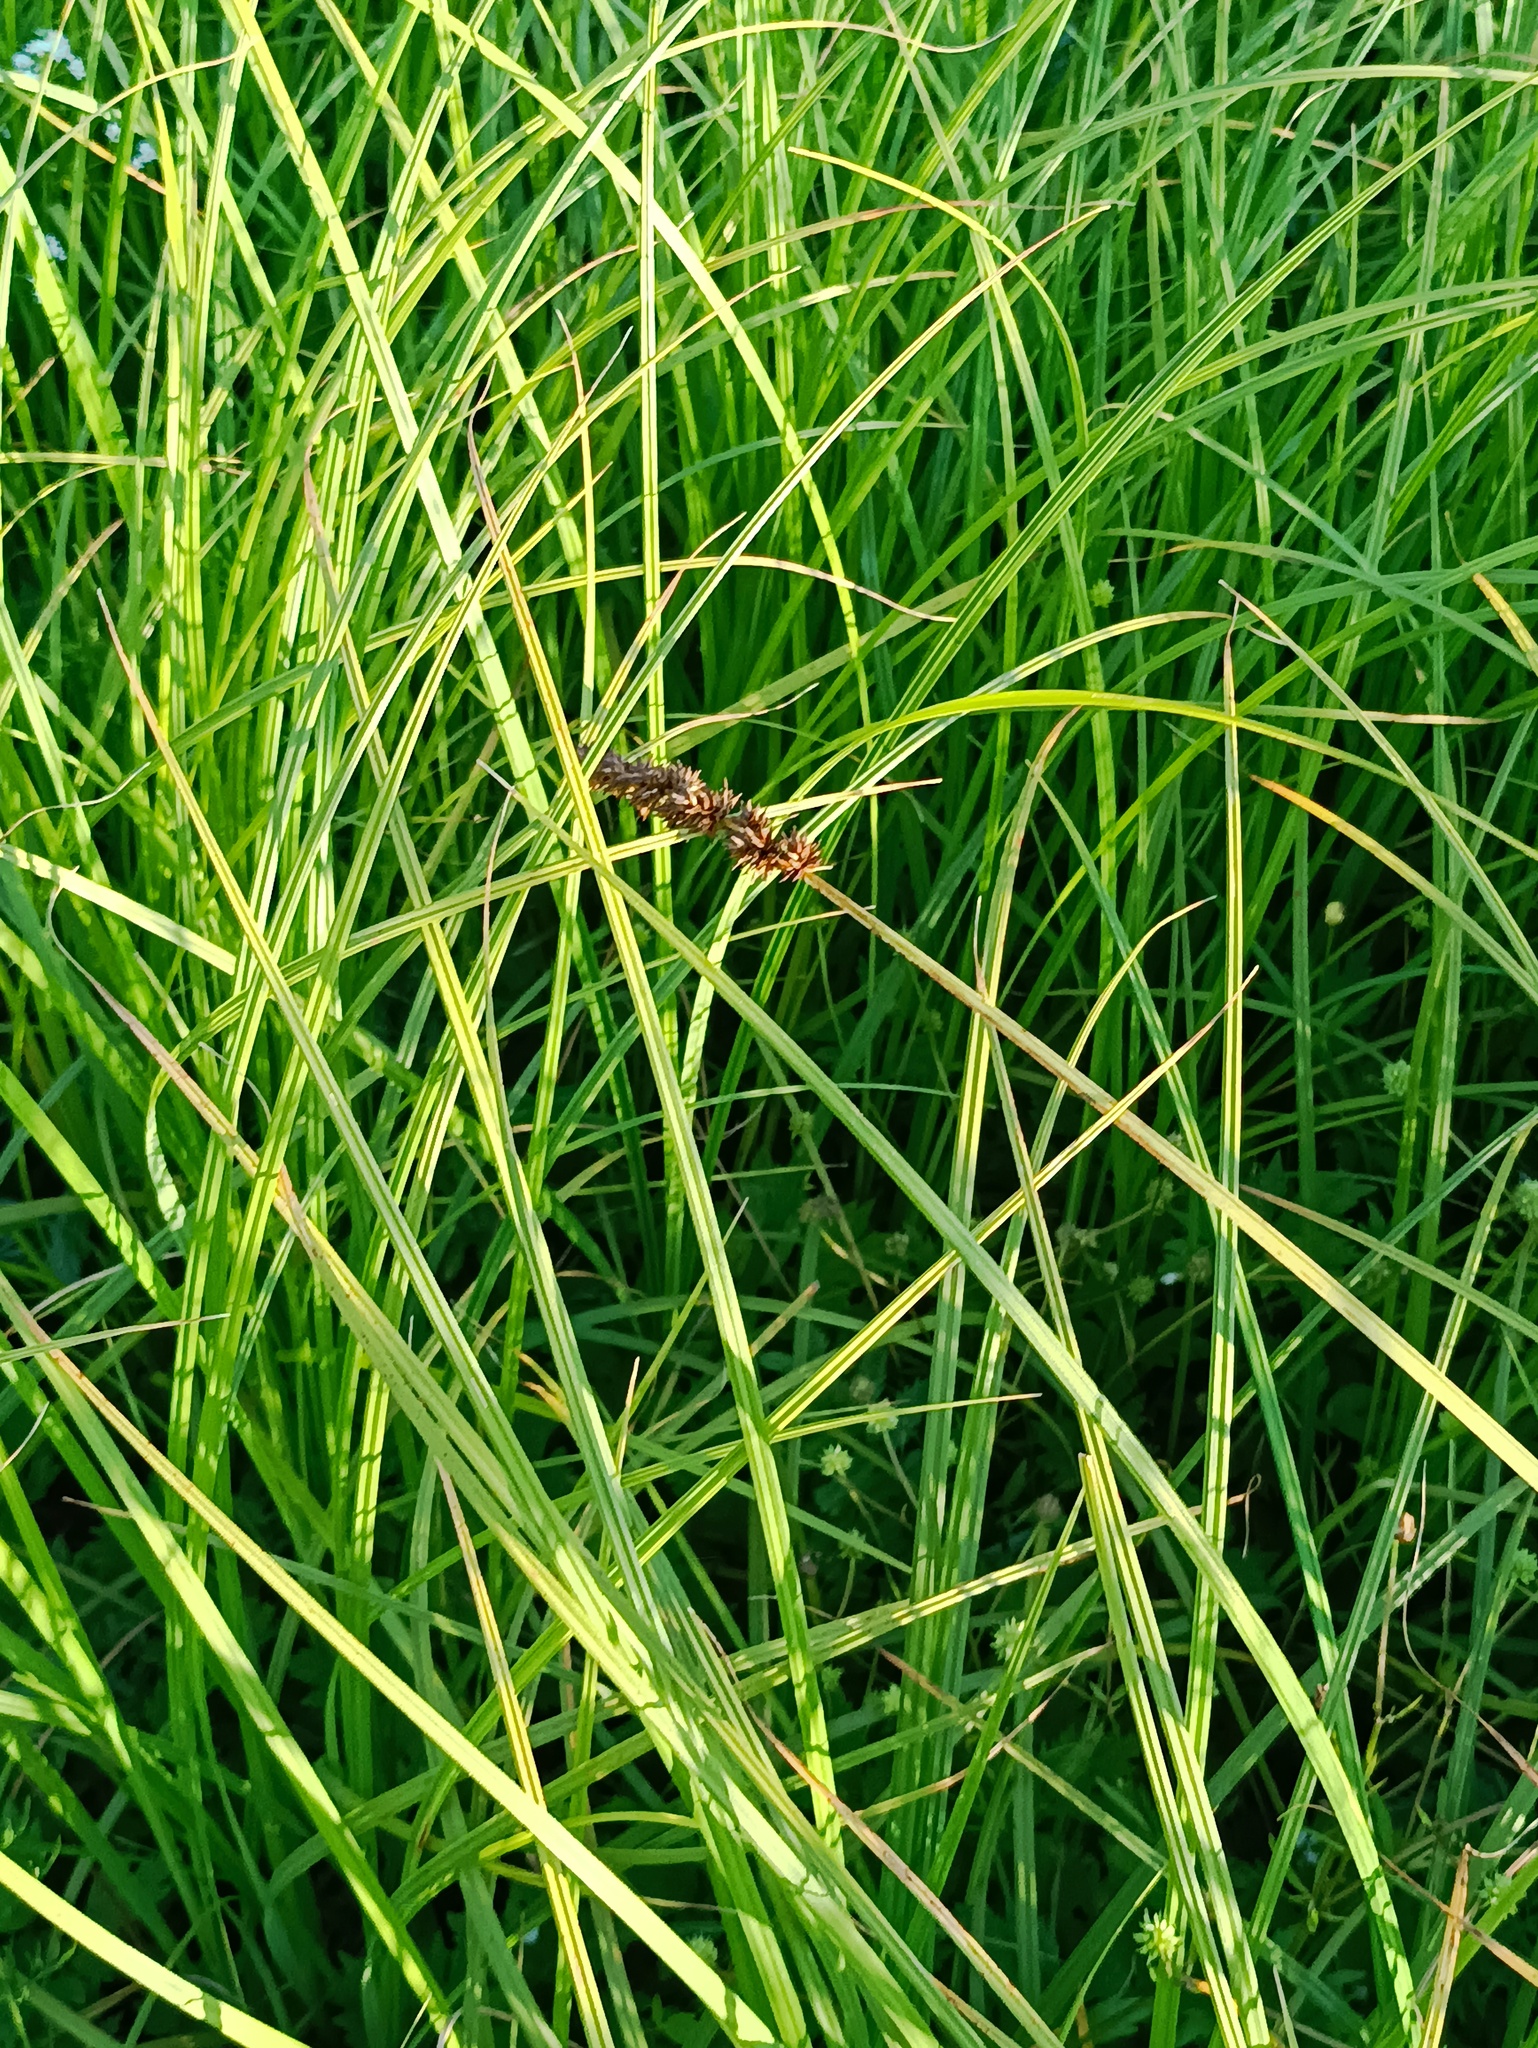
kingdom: Plantae
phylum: Tracheophyta
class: Liliopsida
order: Poales
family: Cyperaceae
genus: Carex
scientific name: Carex vulpina
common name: True fox-sedge
